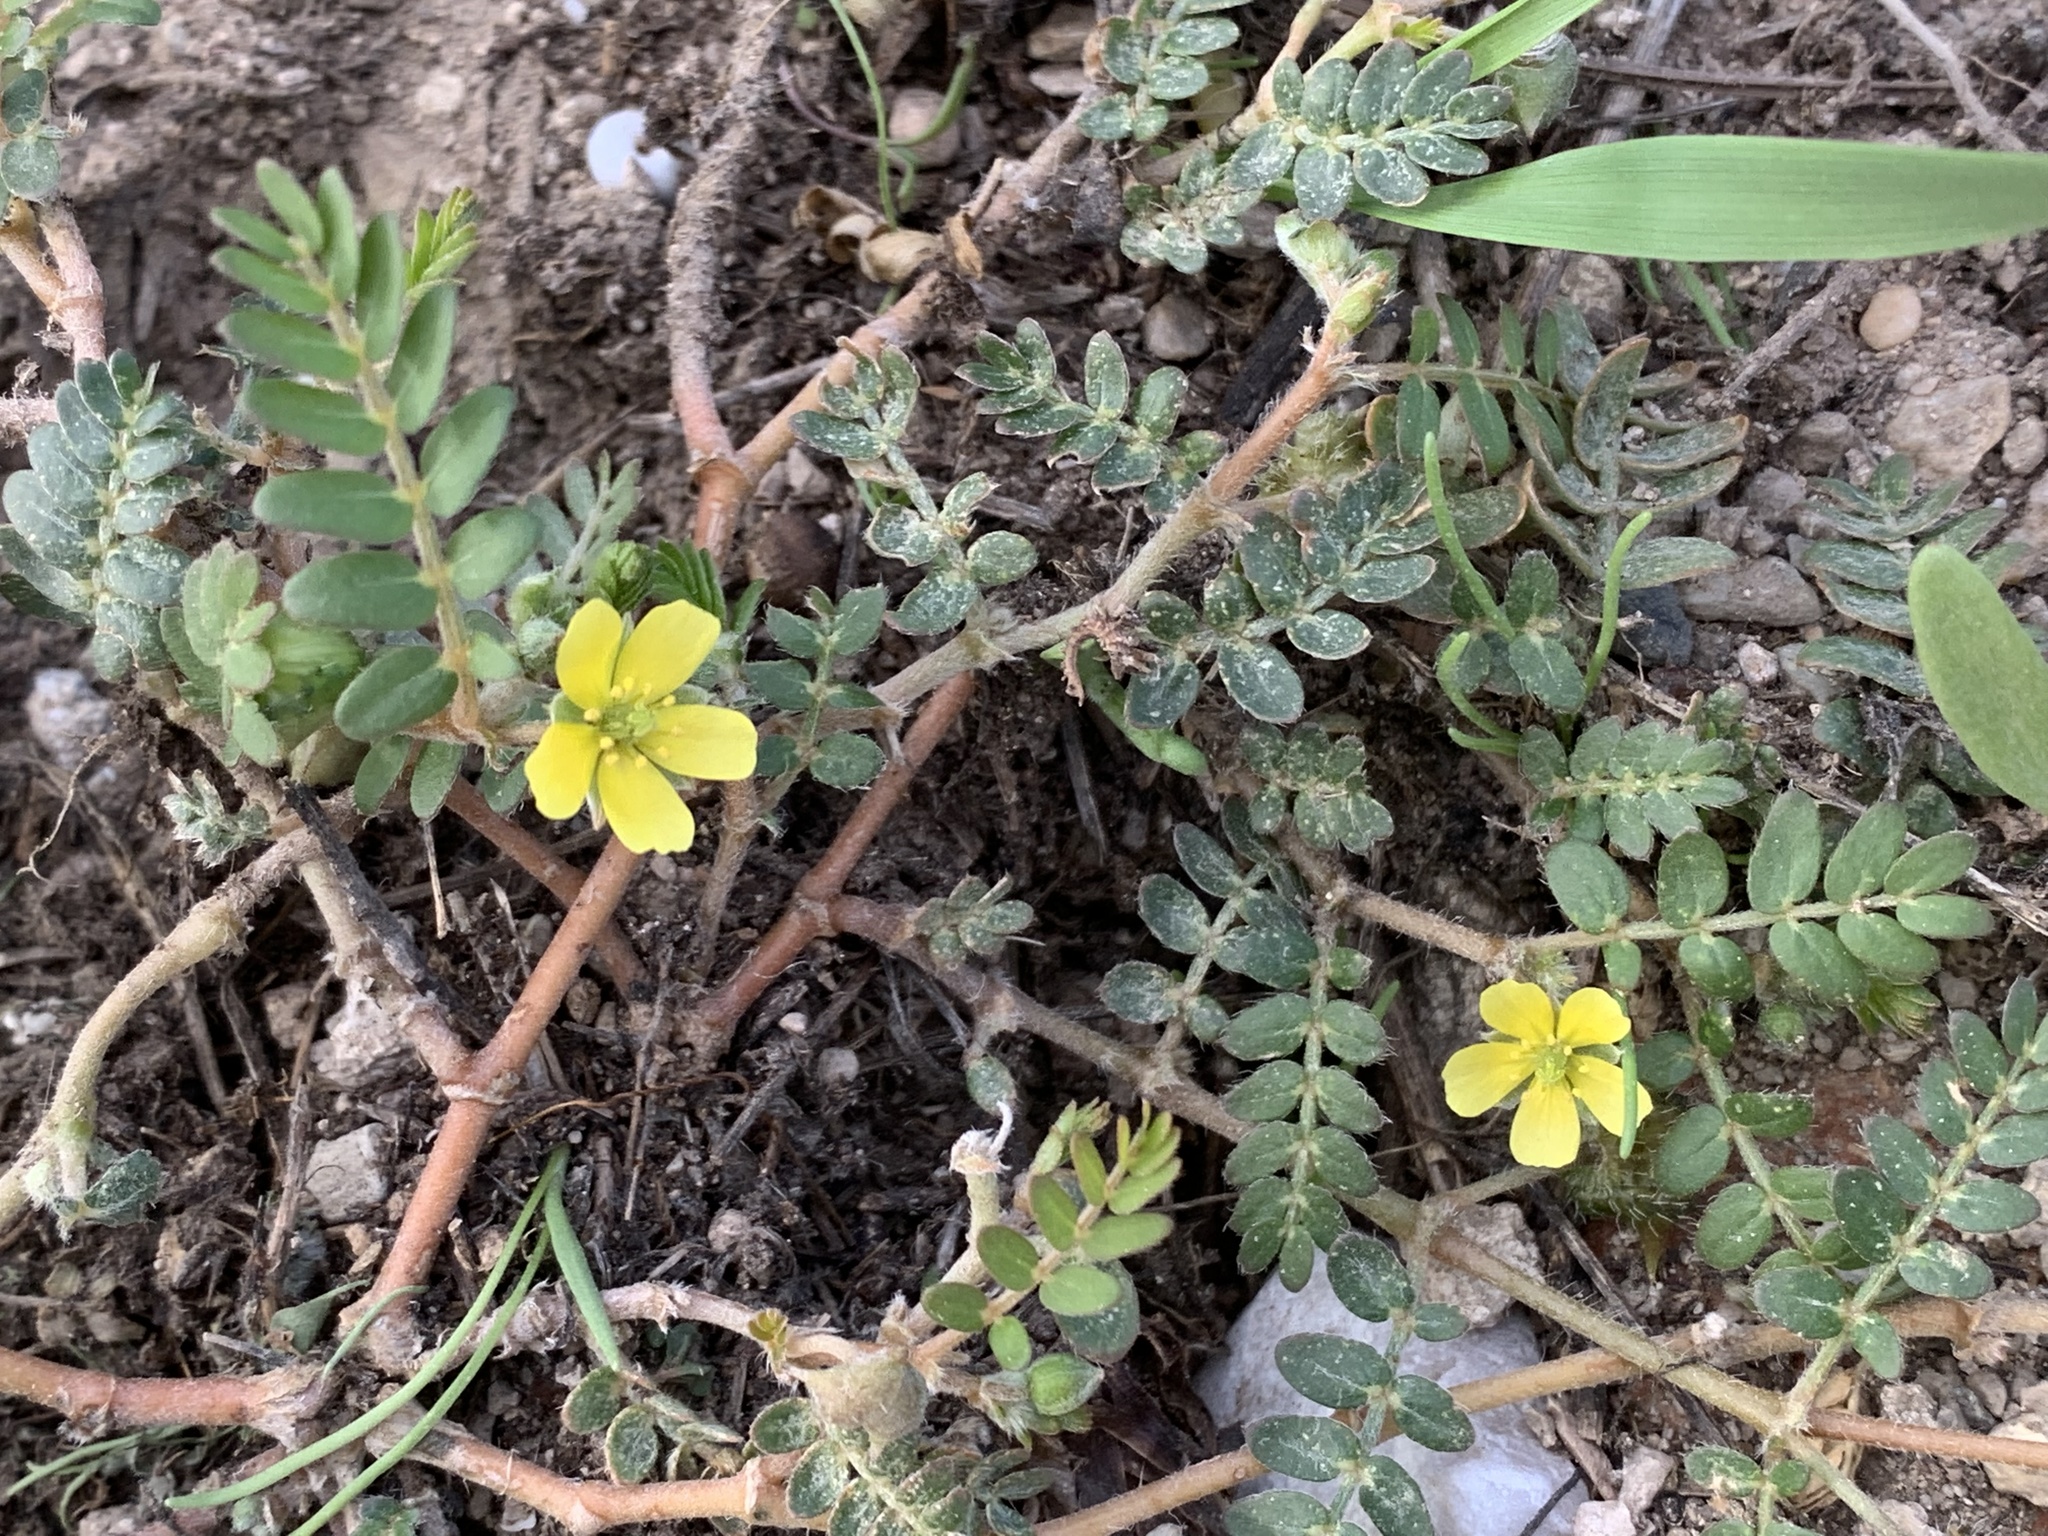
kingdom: Plantae
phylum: Tracheophyta
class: Magnoliopsida
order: Zygophyllales
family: Zygophyllaceae
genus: Tribulus
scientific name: Tribulus terrestris
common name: Puncturevine
